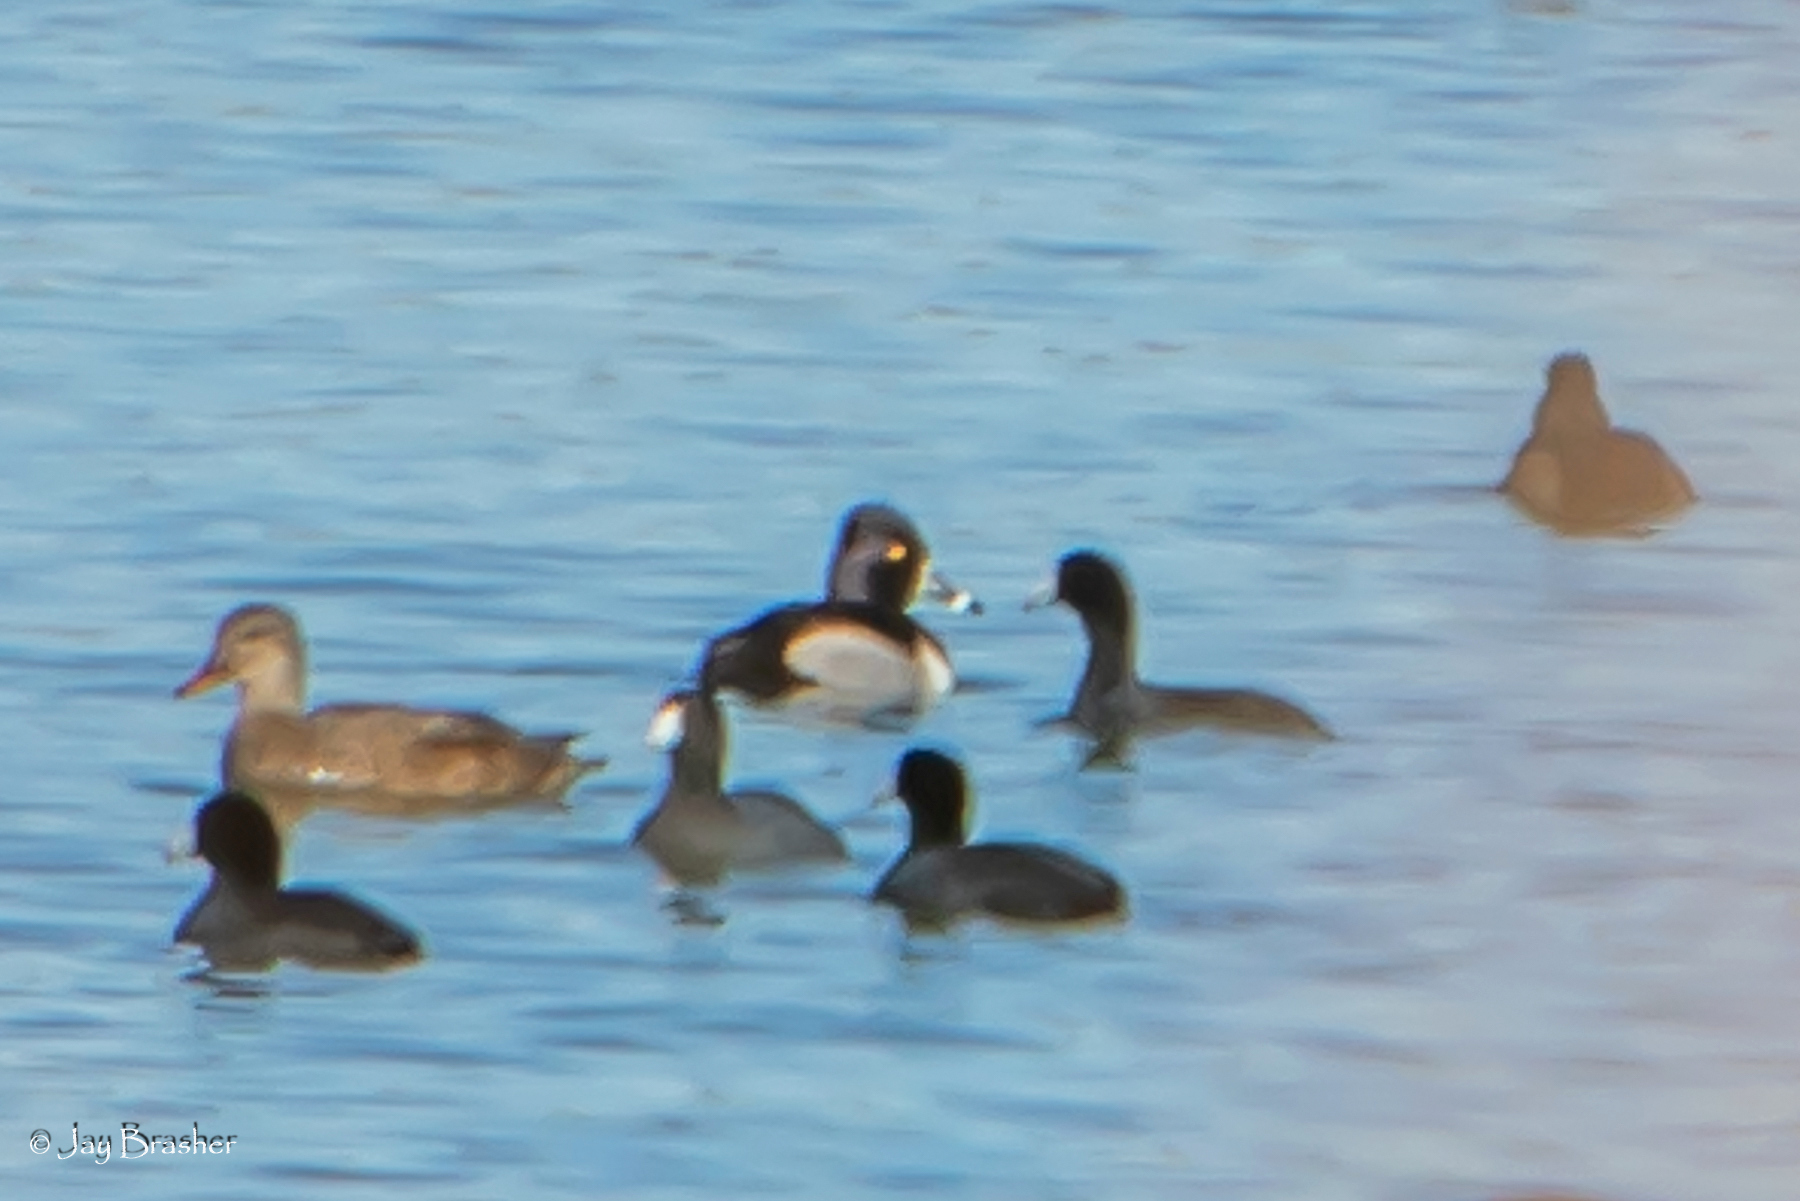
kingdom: Animalia
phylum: Chordata
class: Aves
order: Anseriformes
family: Anatidae
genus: Aythya
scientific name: Aythya collaris
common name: Ring-necked duck
